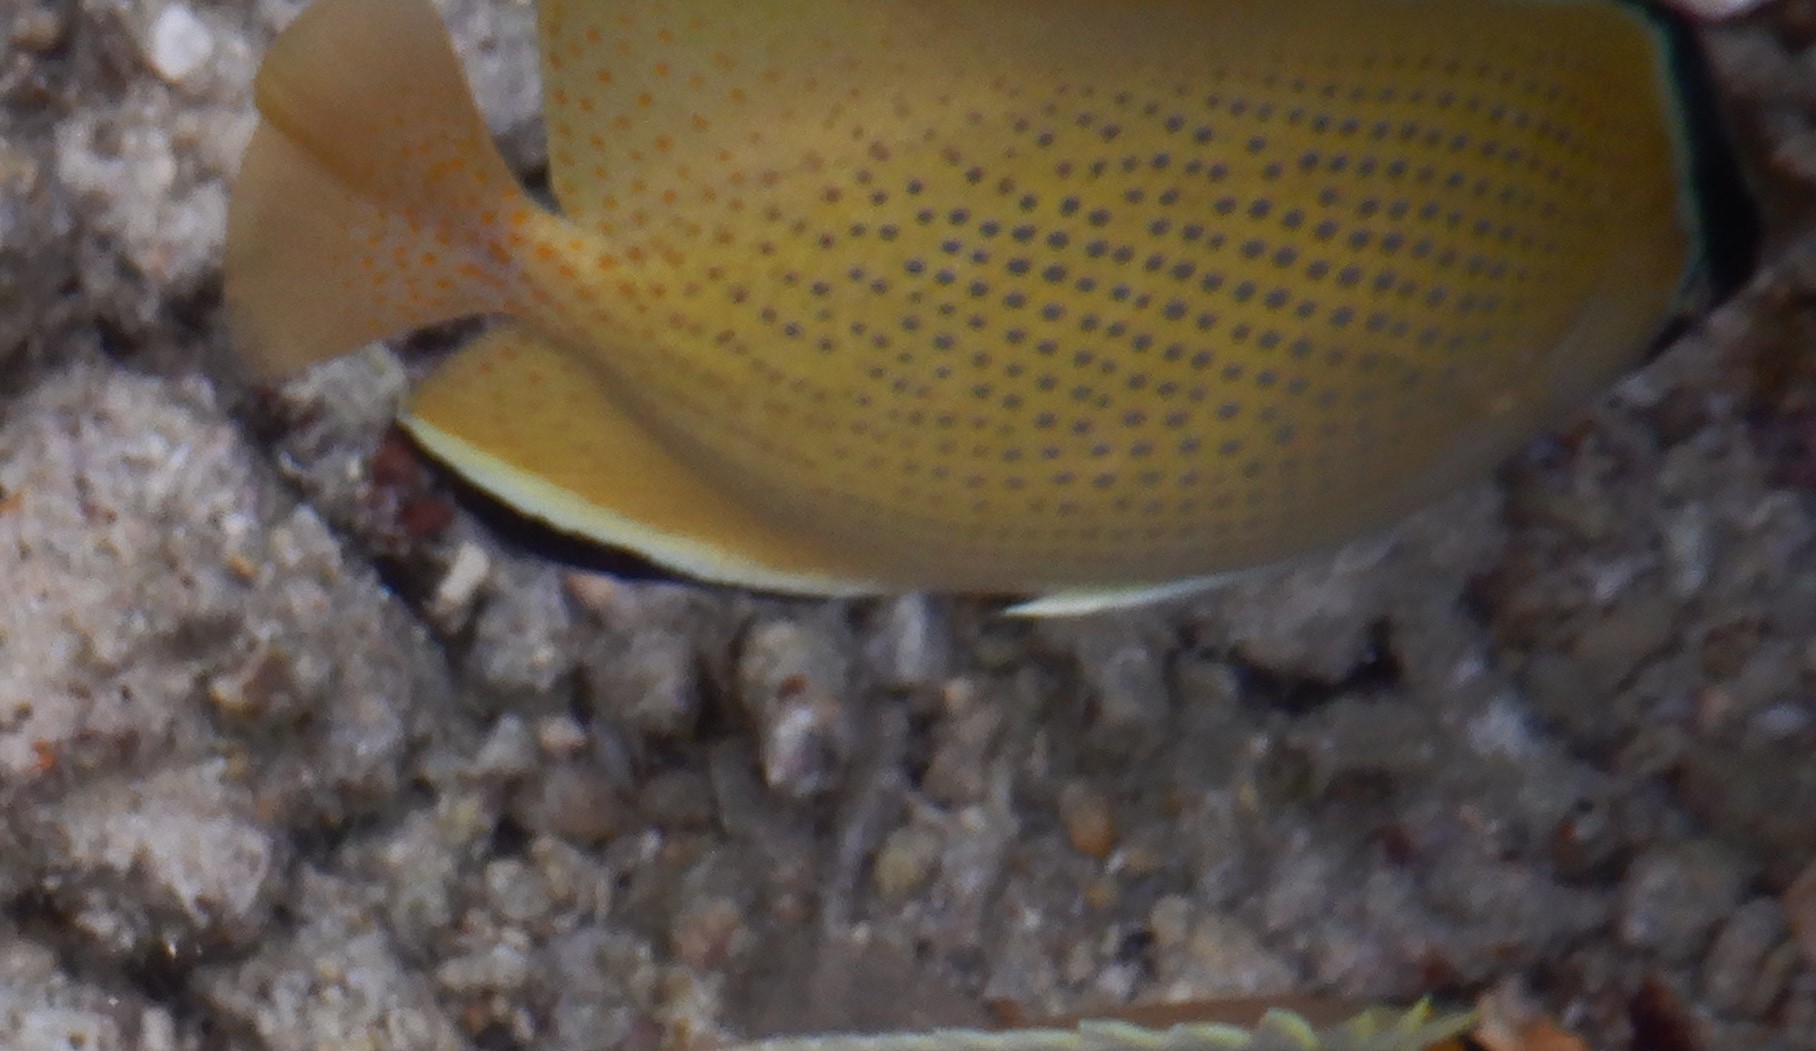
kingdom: Animalia
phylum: Chordata
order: Perciformes
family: Chaetodontidae
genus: Chaetodon
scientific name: Chaetodon citrinellus
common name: Speckled butterflyfish
